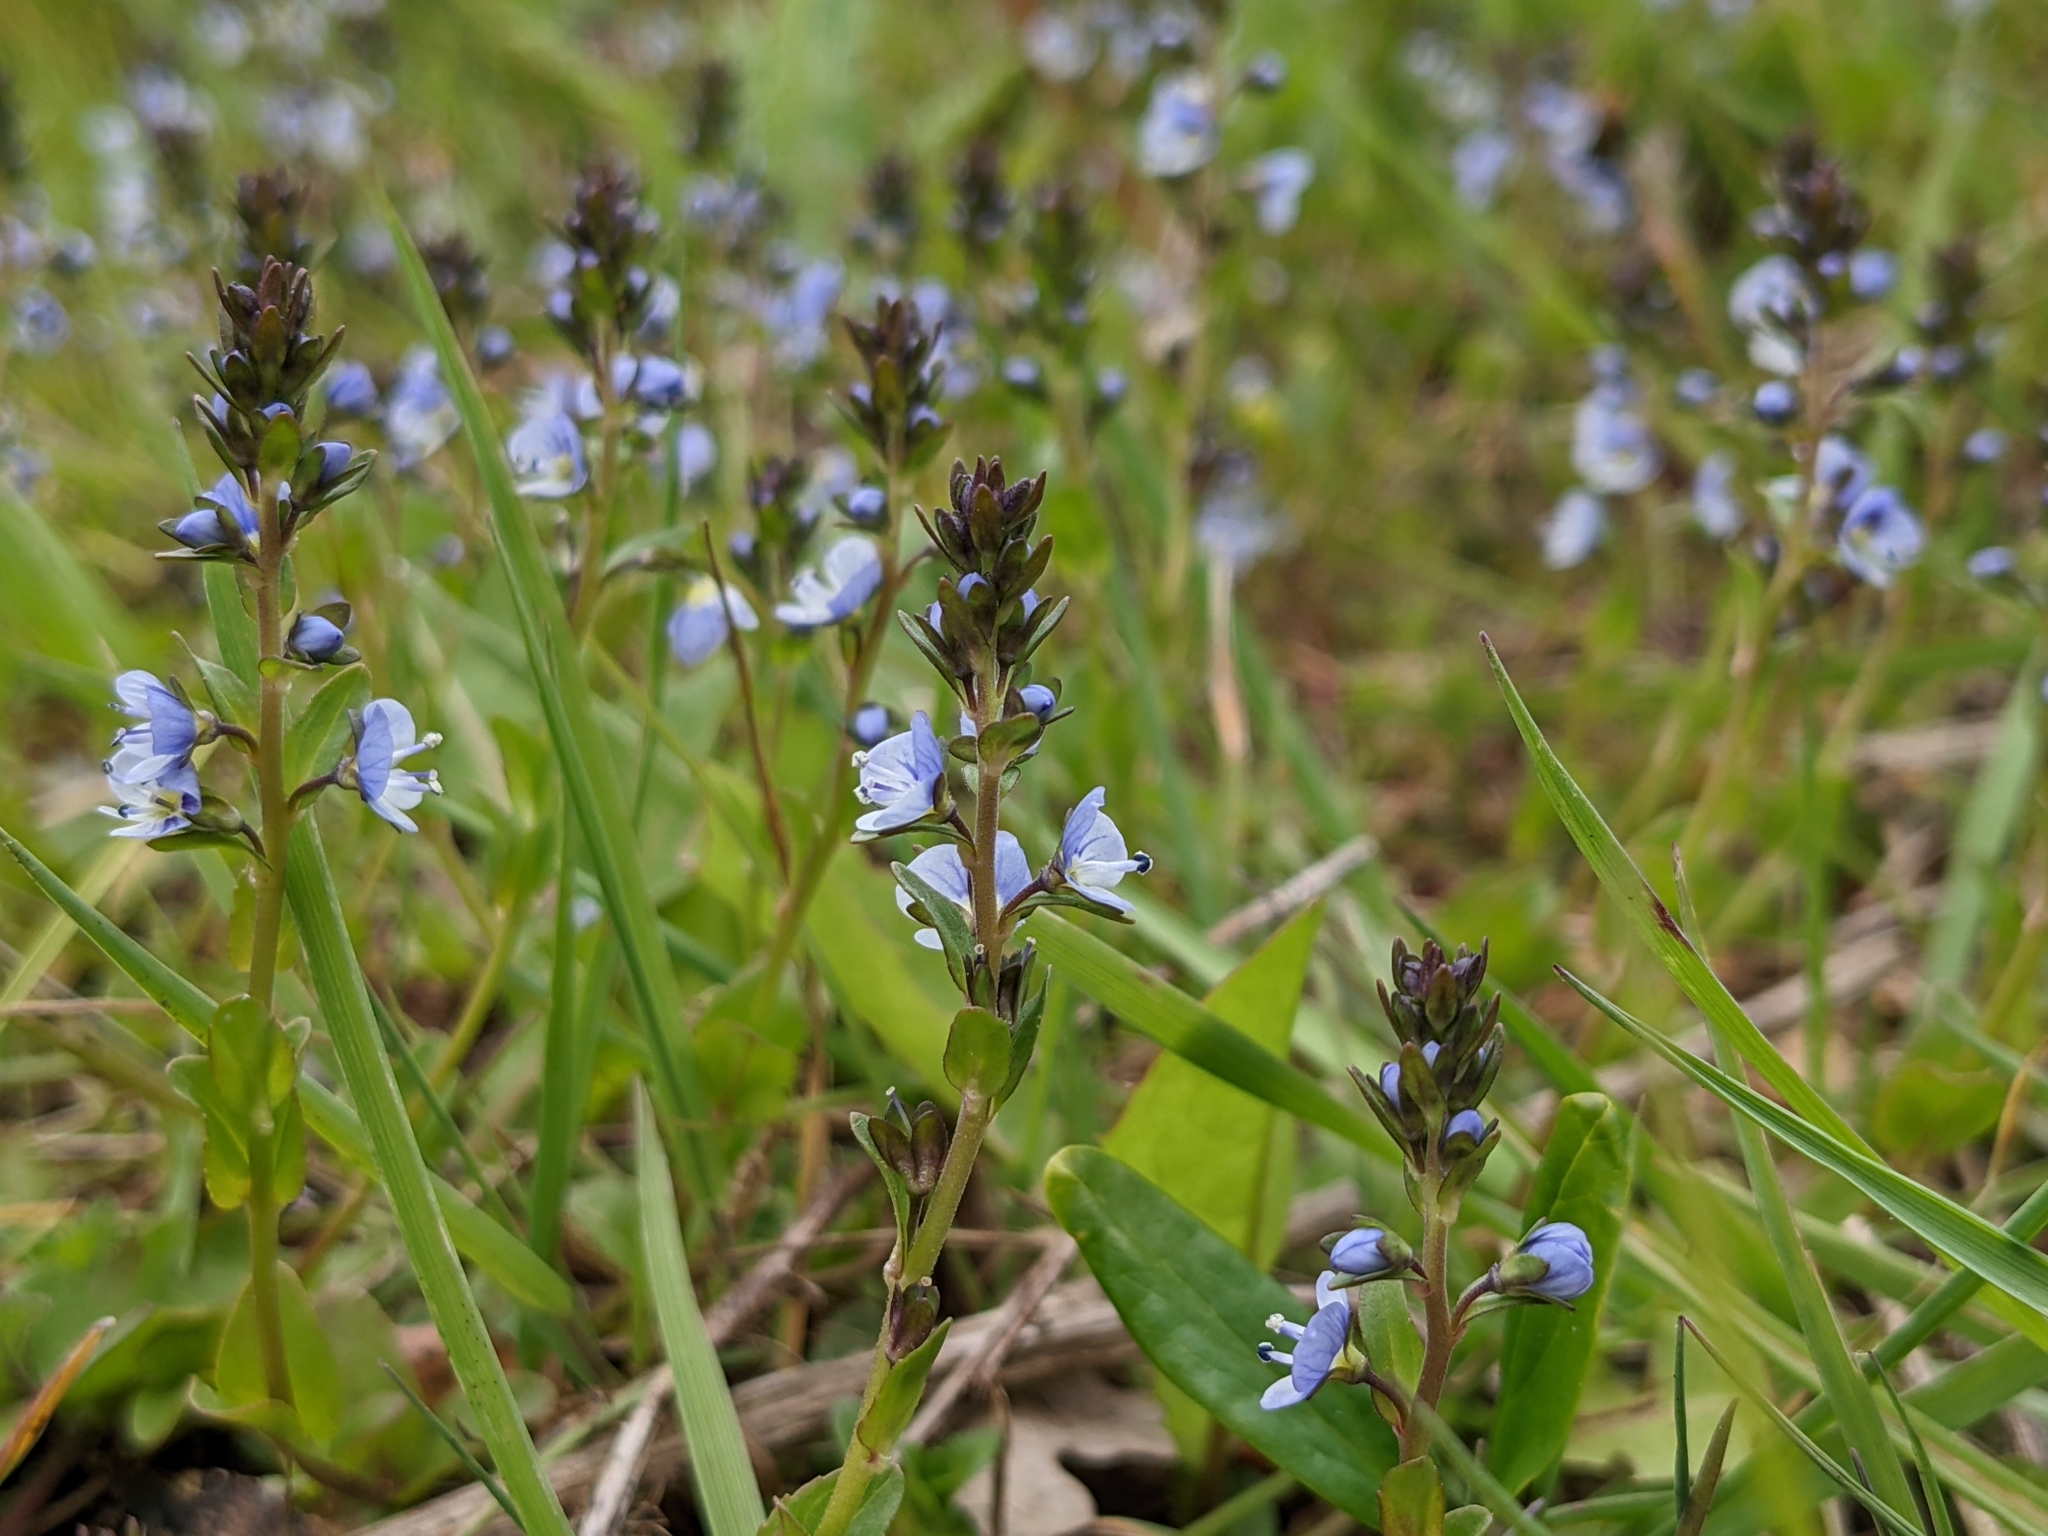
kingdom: Plantae
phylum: Tracheophyta
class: Magnoliopsida
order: Lamiales
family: Plantaginaceae
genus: Veronica
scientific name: Veronica serpyllifolia
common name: Thyme-leaved speedwell
